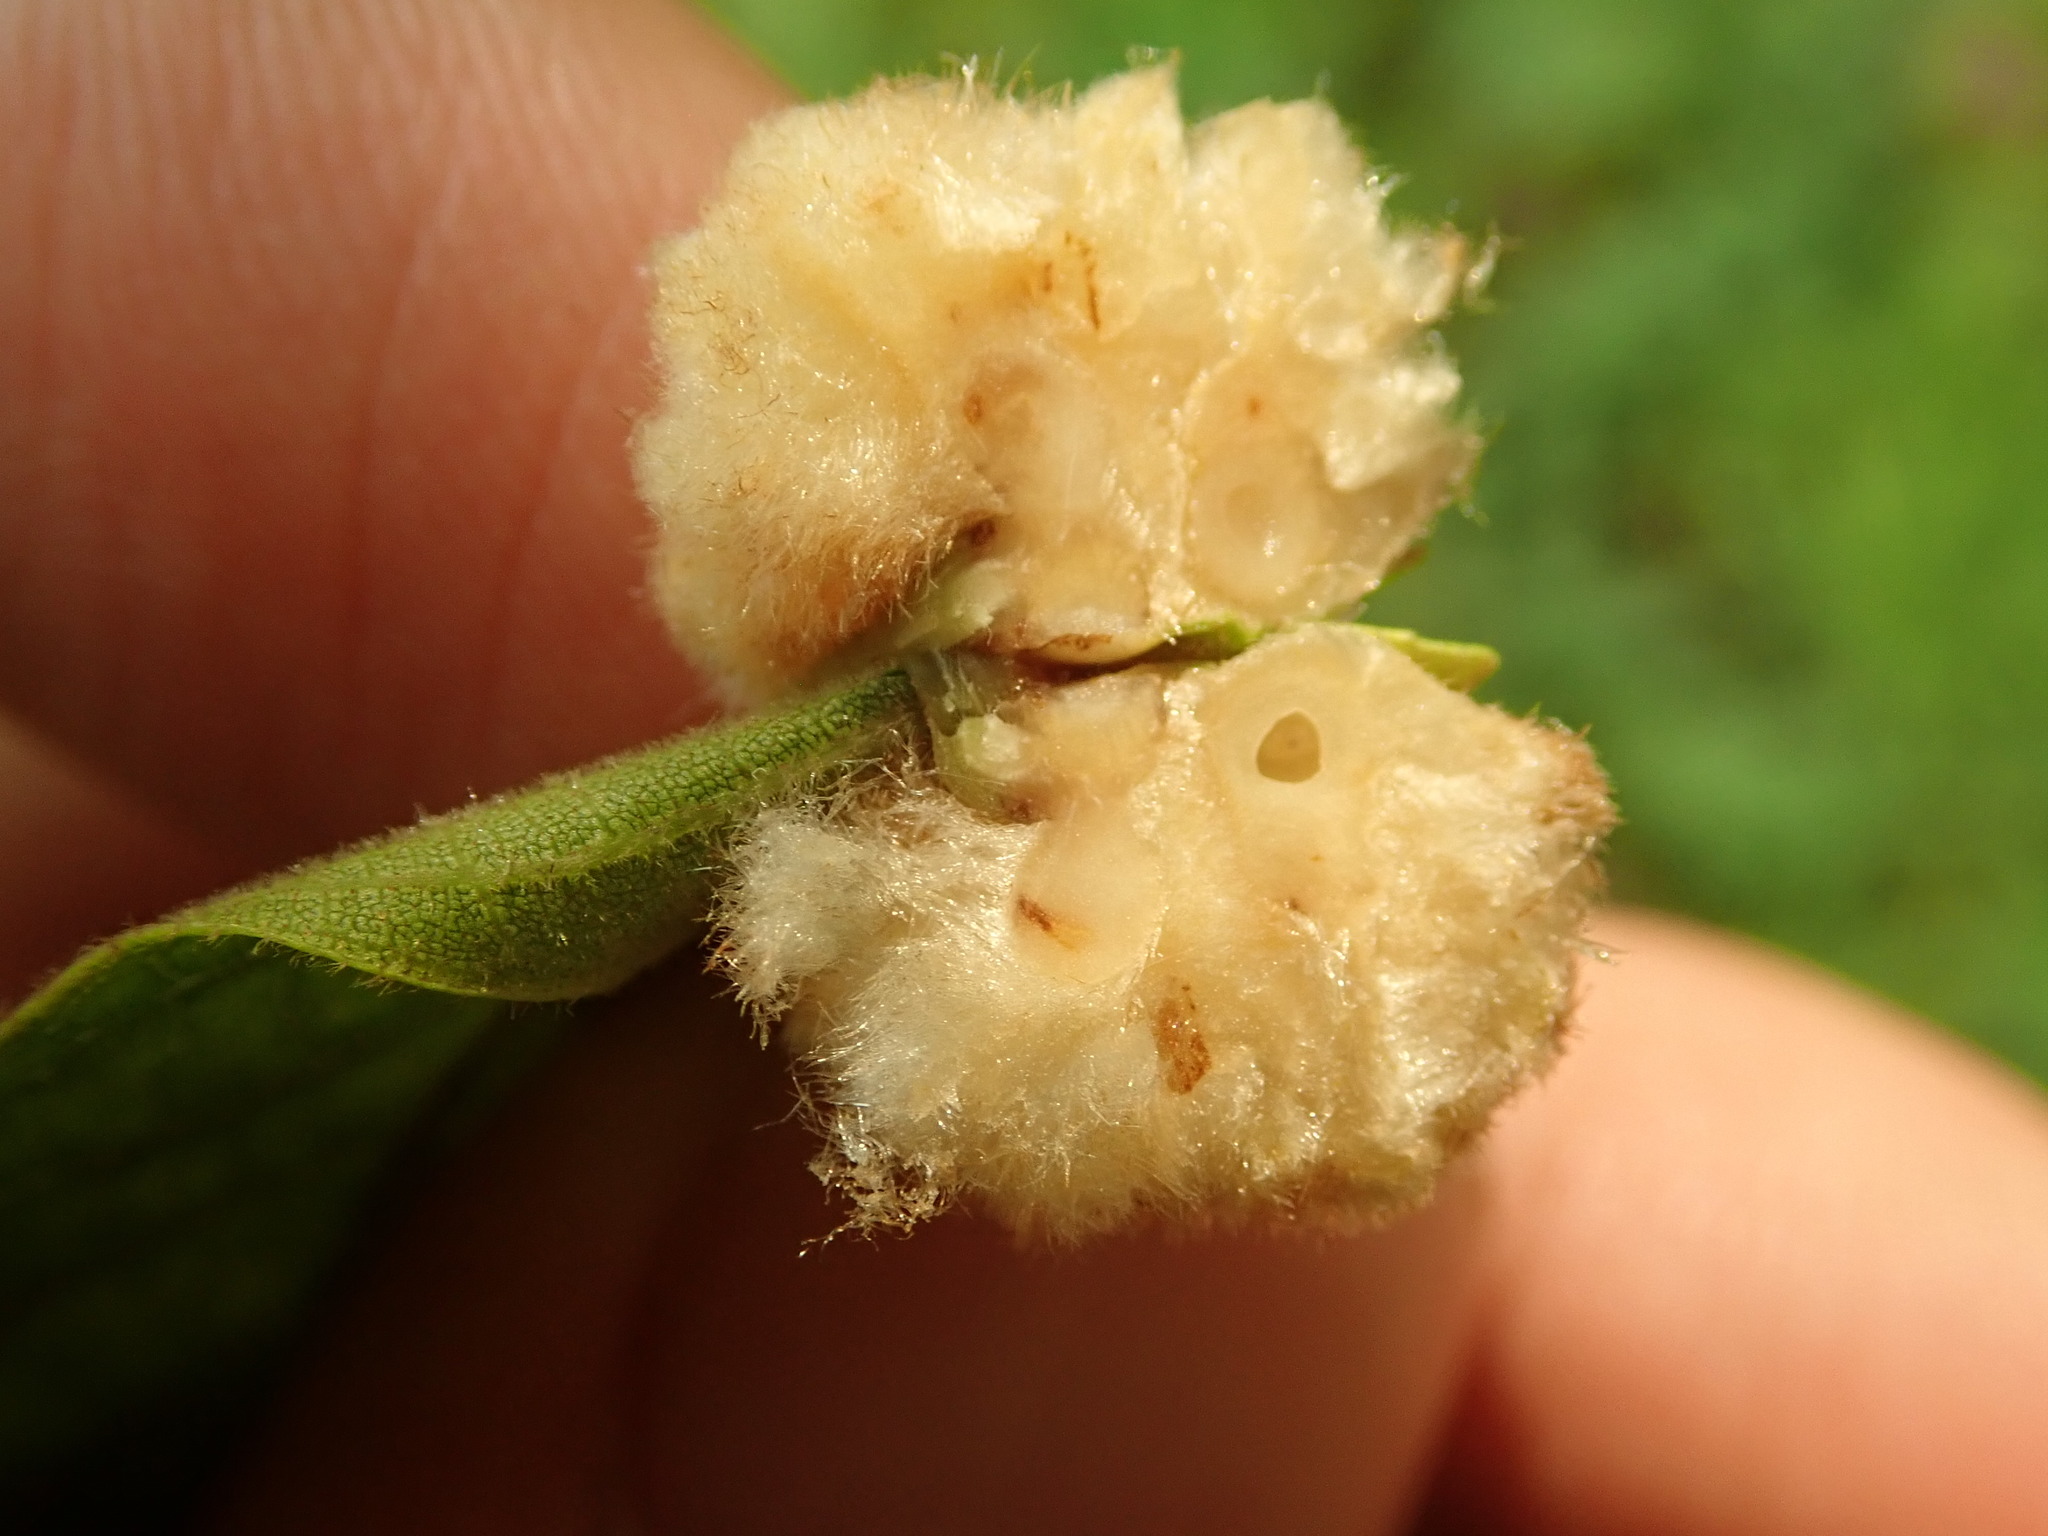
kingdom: Animalia
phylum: Arthropoda
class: Insecta
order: Diptera
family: Cecidomyiidae
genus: Caryomyia
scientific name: Caryomyia aggregata
